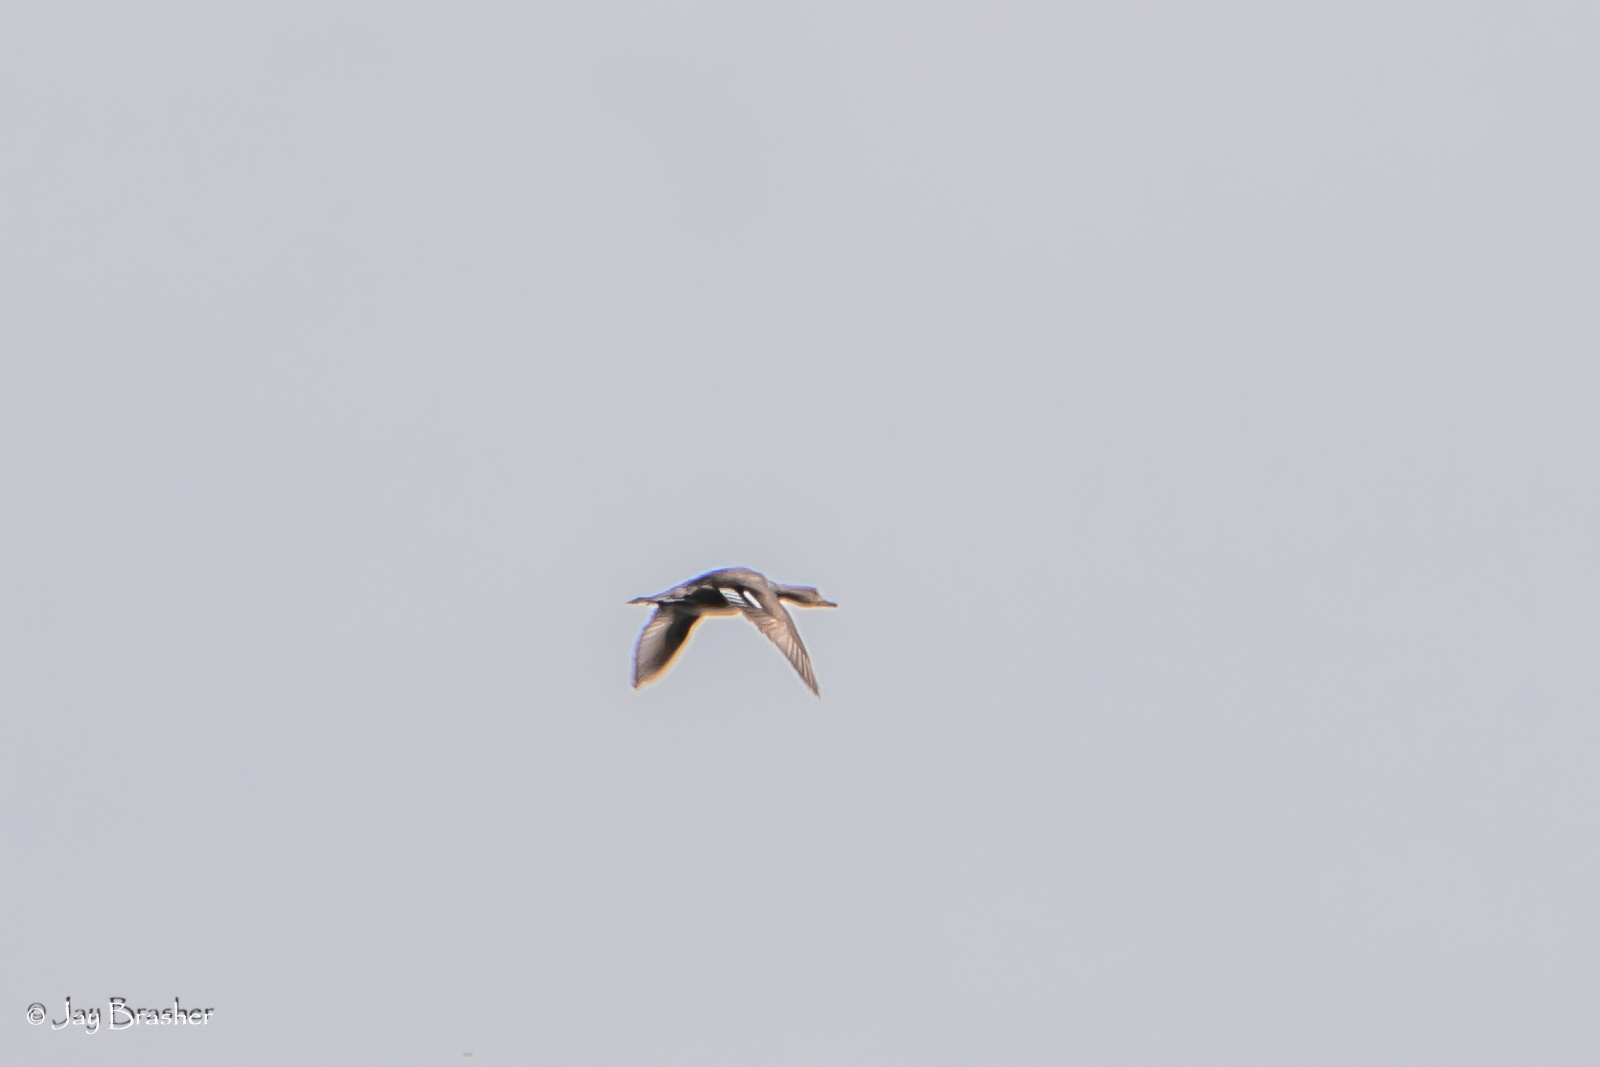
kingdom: Animalia
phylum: Chordata
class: Aves
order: Anseriformes
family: Anatidae
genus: Lophodytes
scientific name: Lophodytes cucullatus
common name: Hooded merganser
